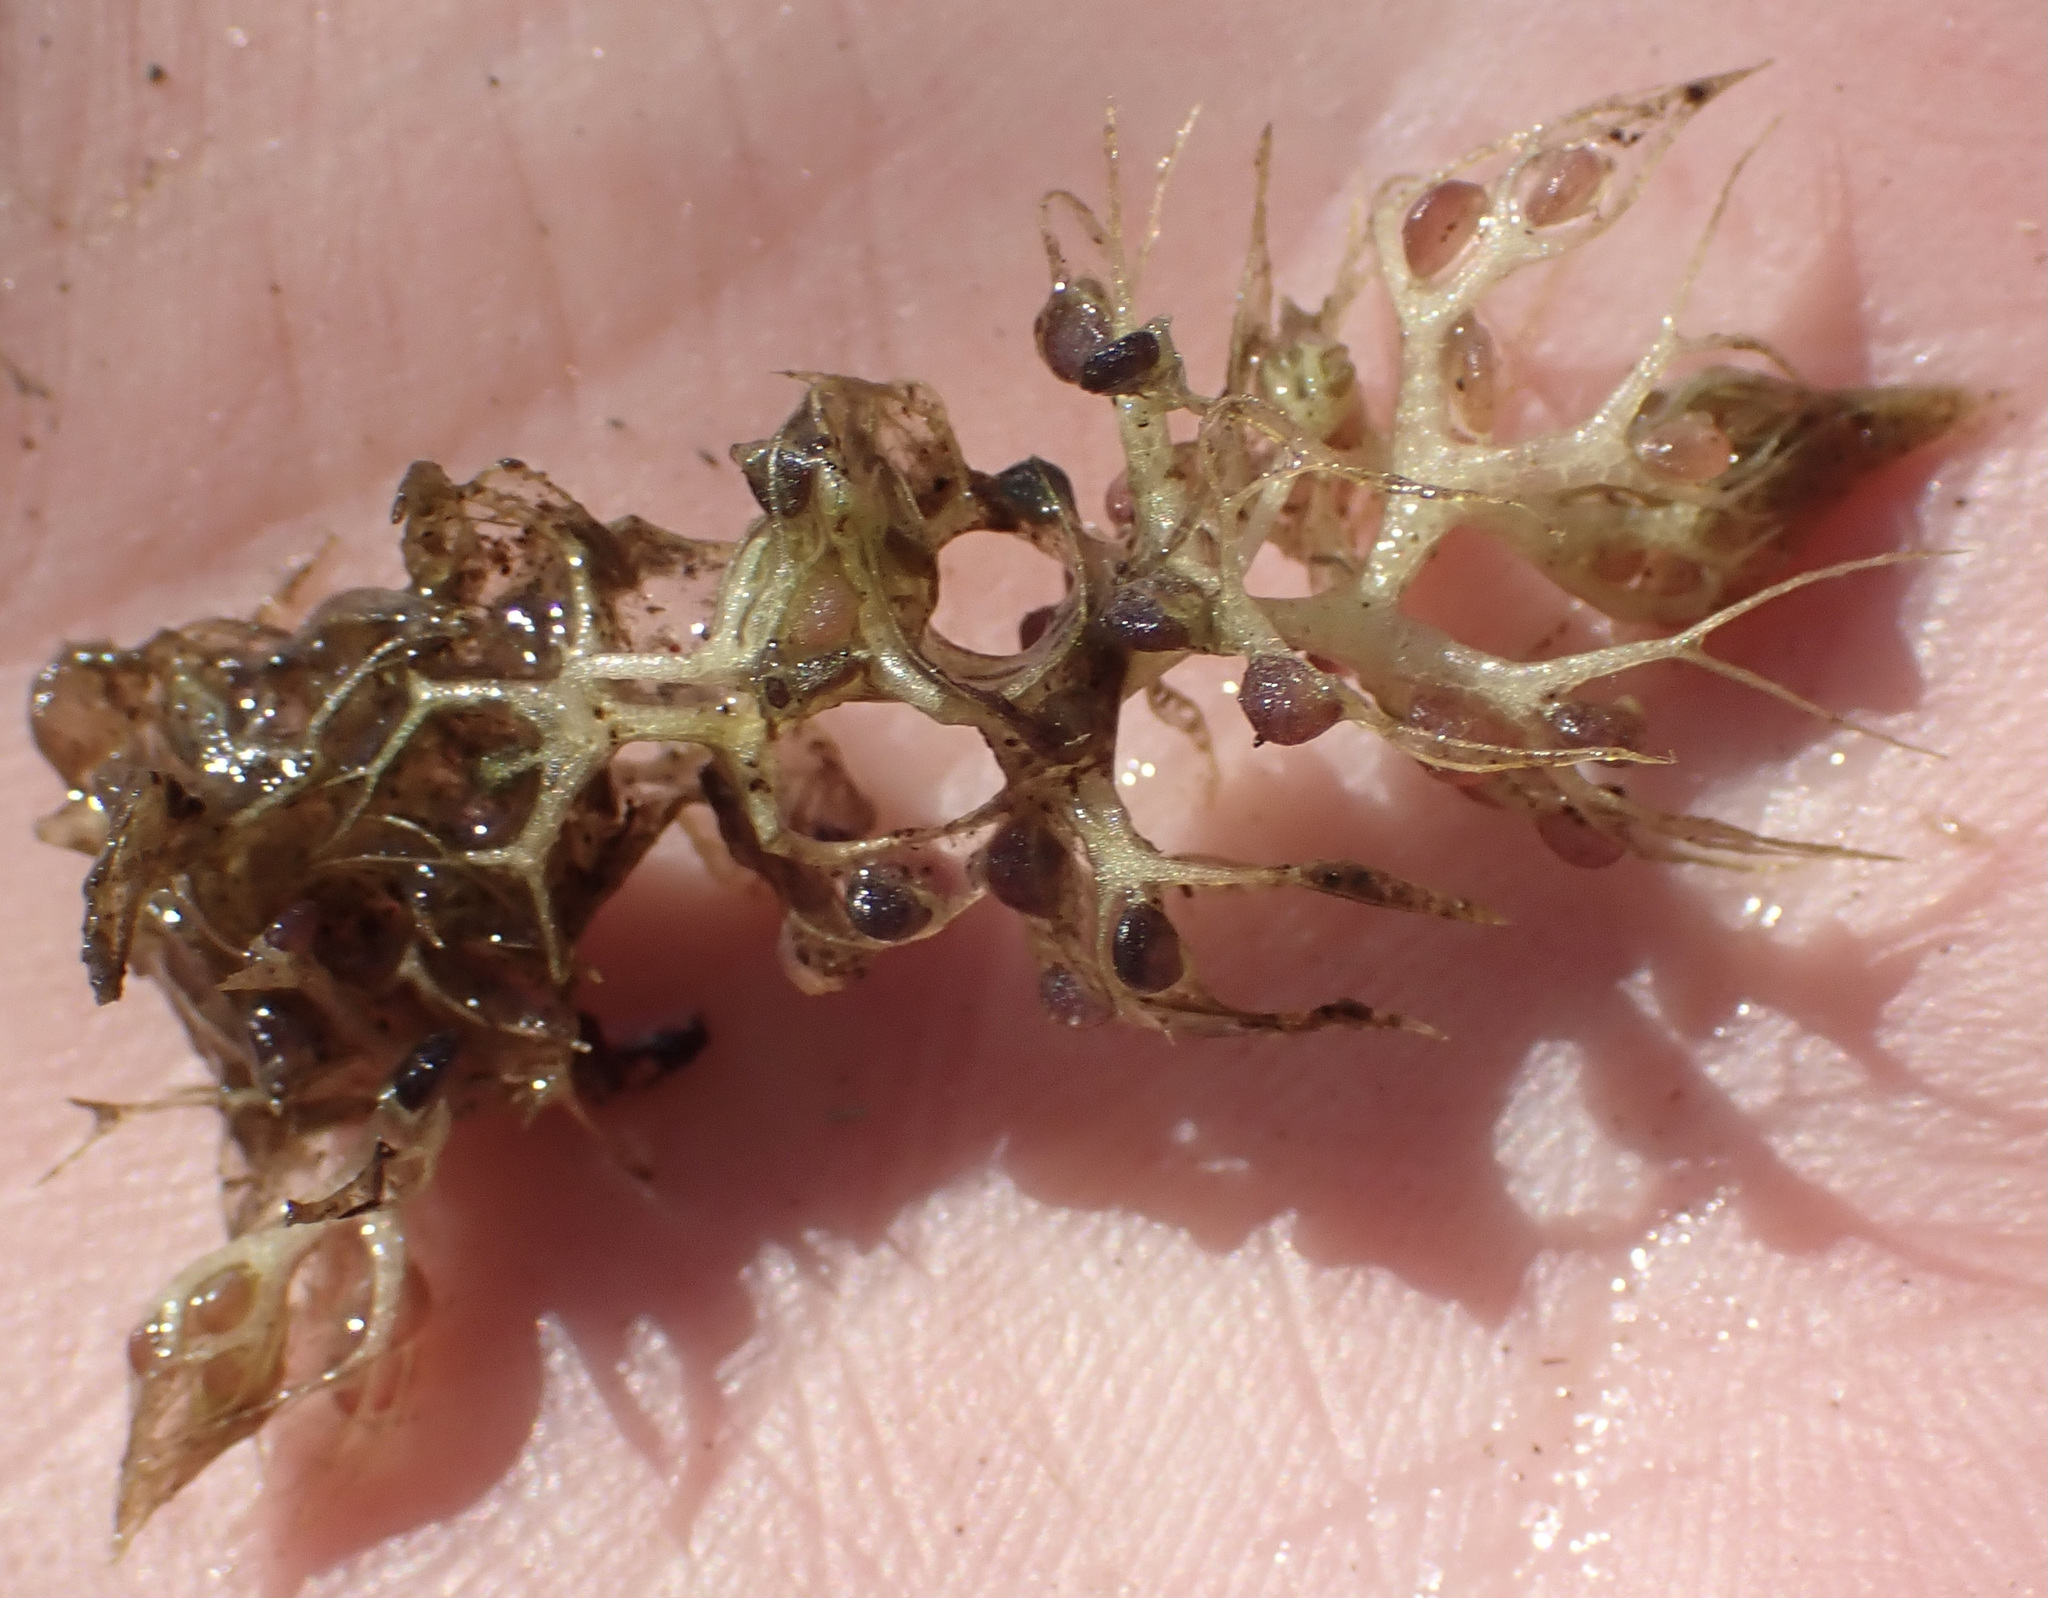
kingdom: Plantae
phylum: Tracheophyta
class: Magnoliopsida
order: Lamiales
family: Lentibulariaceae
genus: Utricularia
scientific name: Utricularia raynalii
